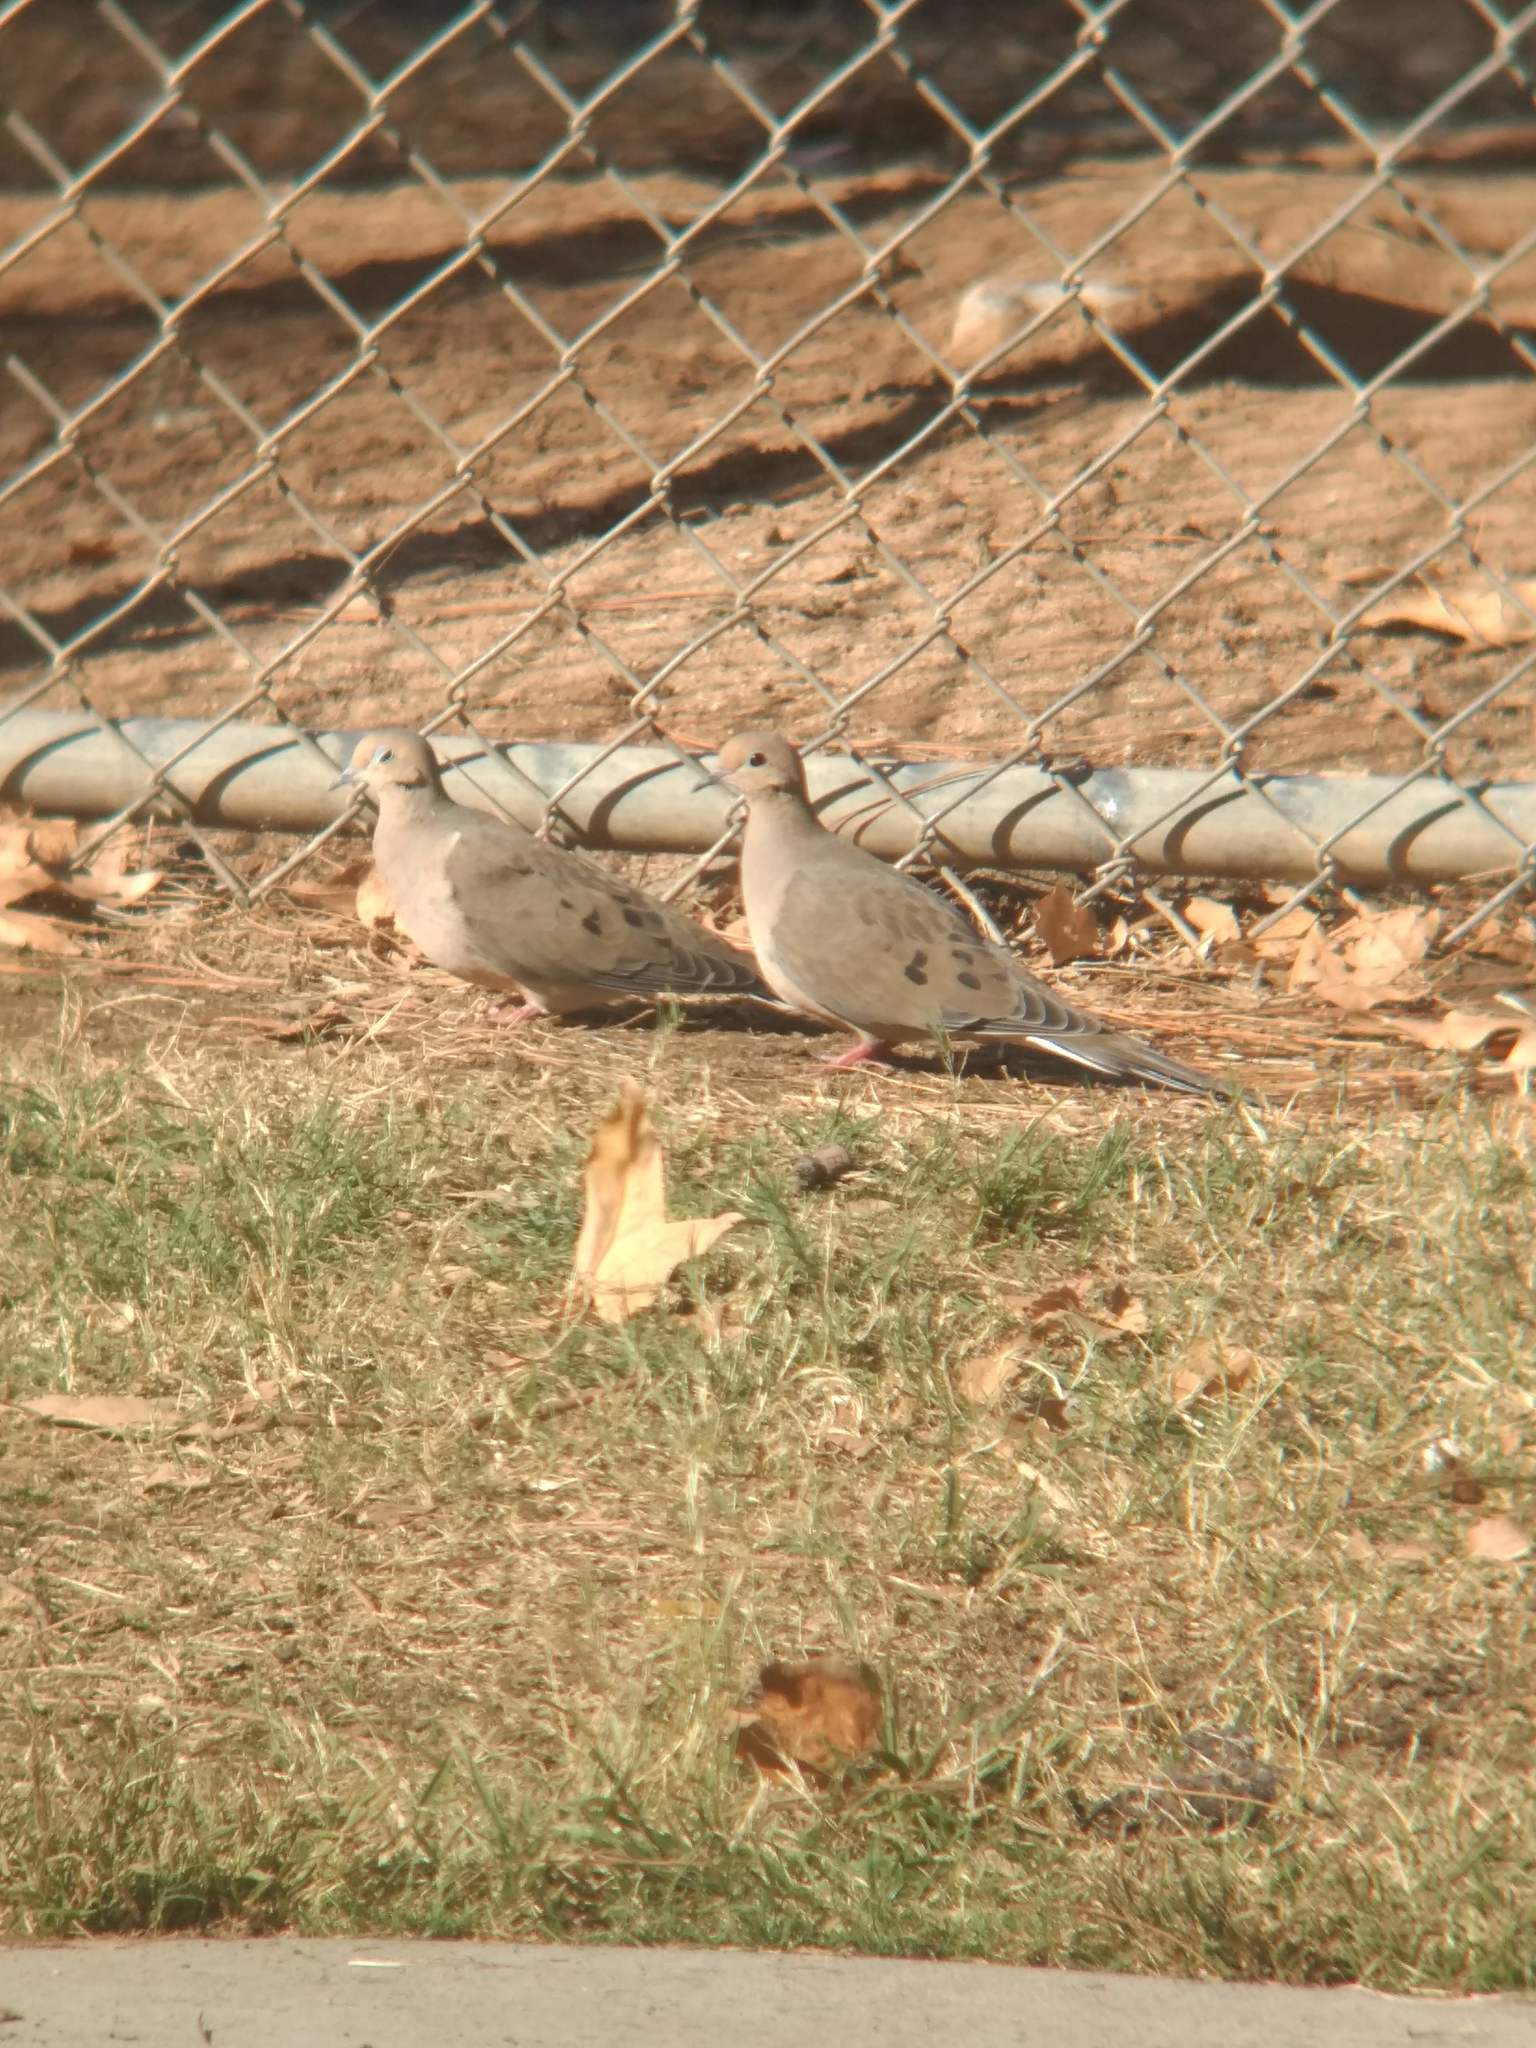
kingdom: Animalia
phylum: Chordata
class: Aves
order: Columbiformes
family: Columbidae
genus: Zenaida
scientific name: Zenaida macroura
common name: Mourning dove
